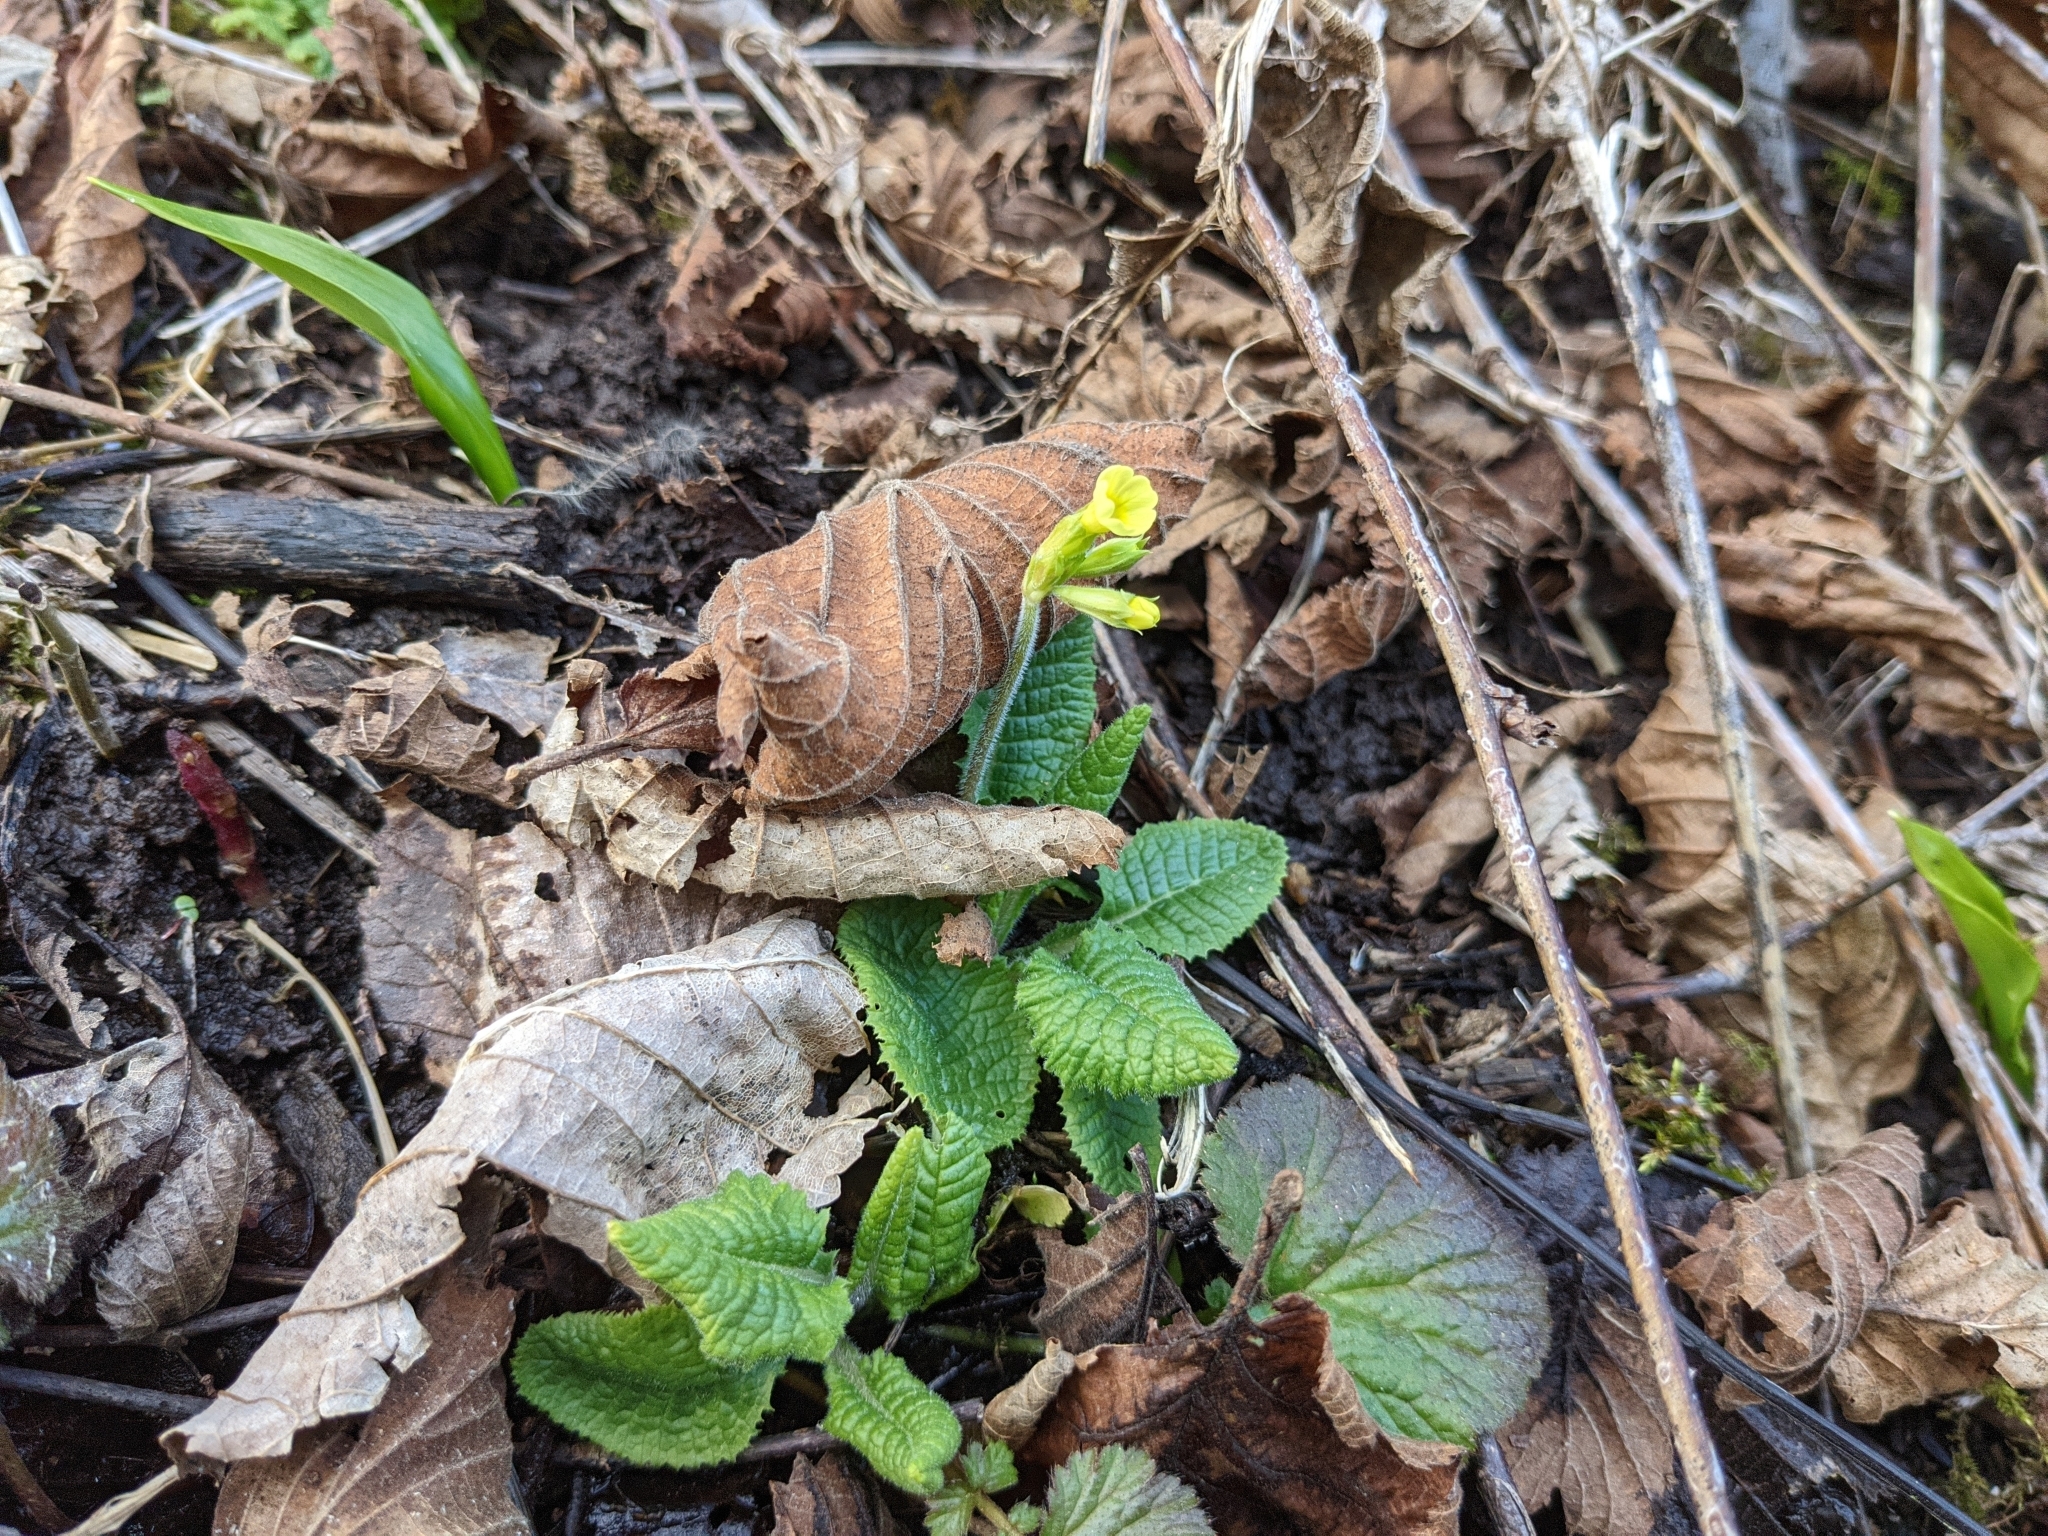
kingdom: Plantae
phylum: Tracheophyta
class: Magnoliopsida
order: Ericales
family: Primulaceae
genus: Primula
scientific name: Primula elatior
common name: Oxlip
